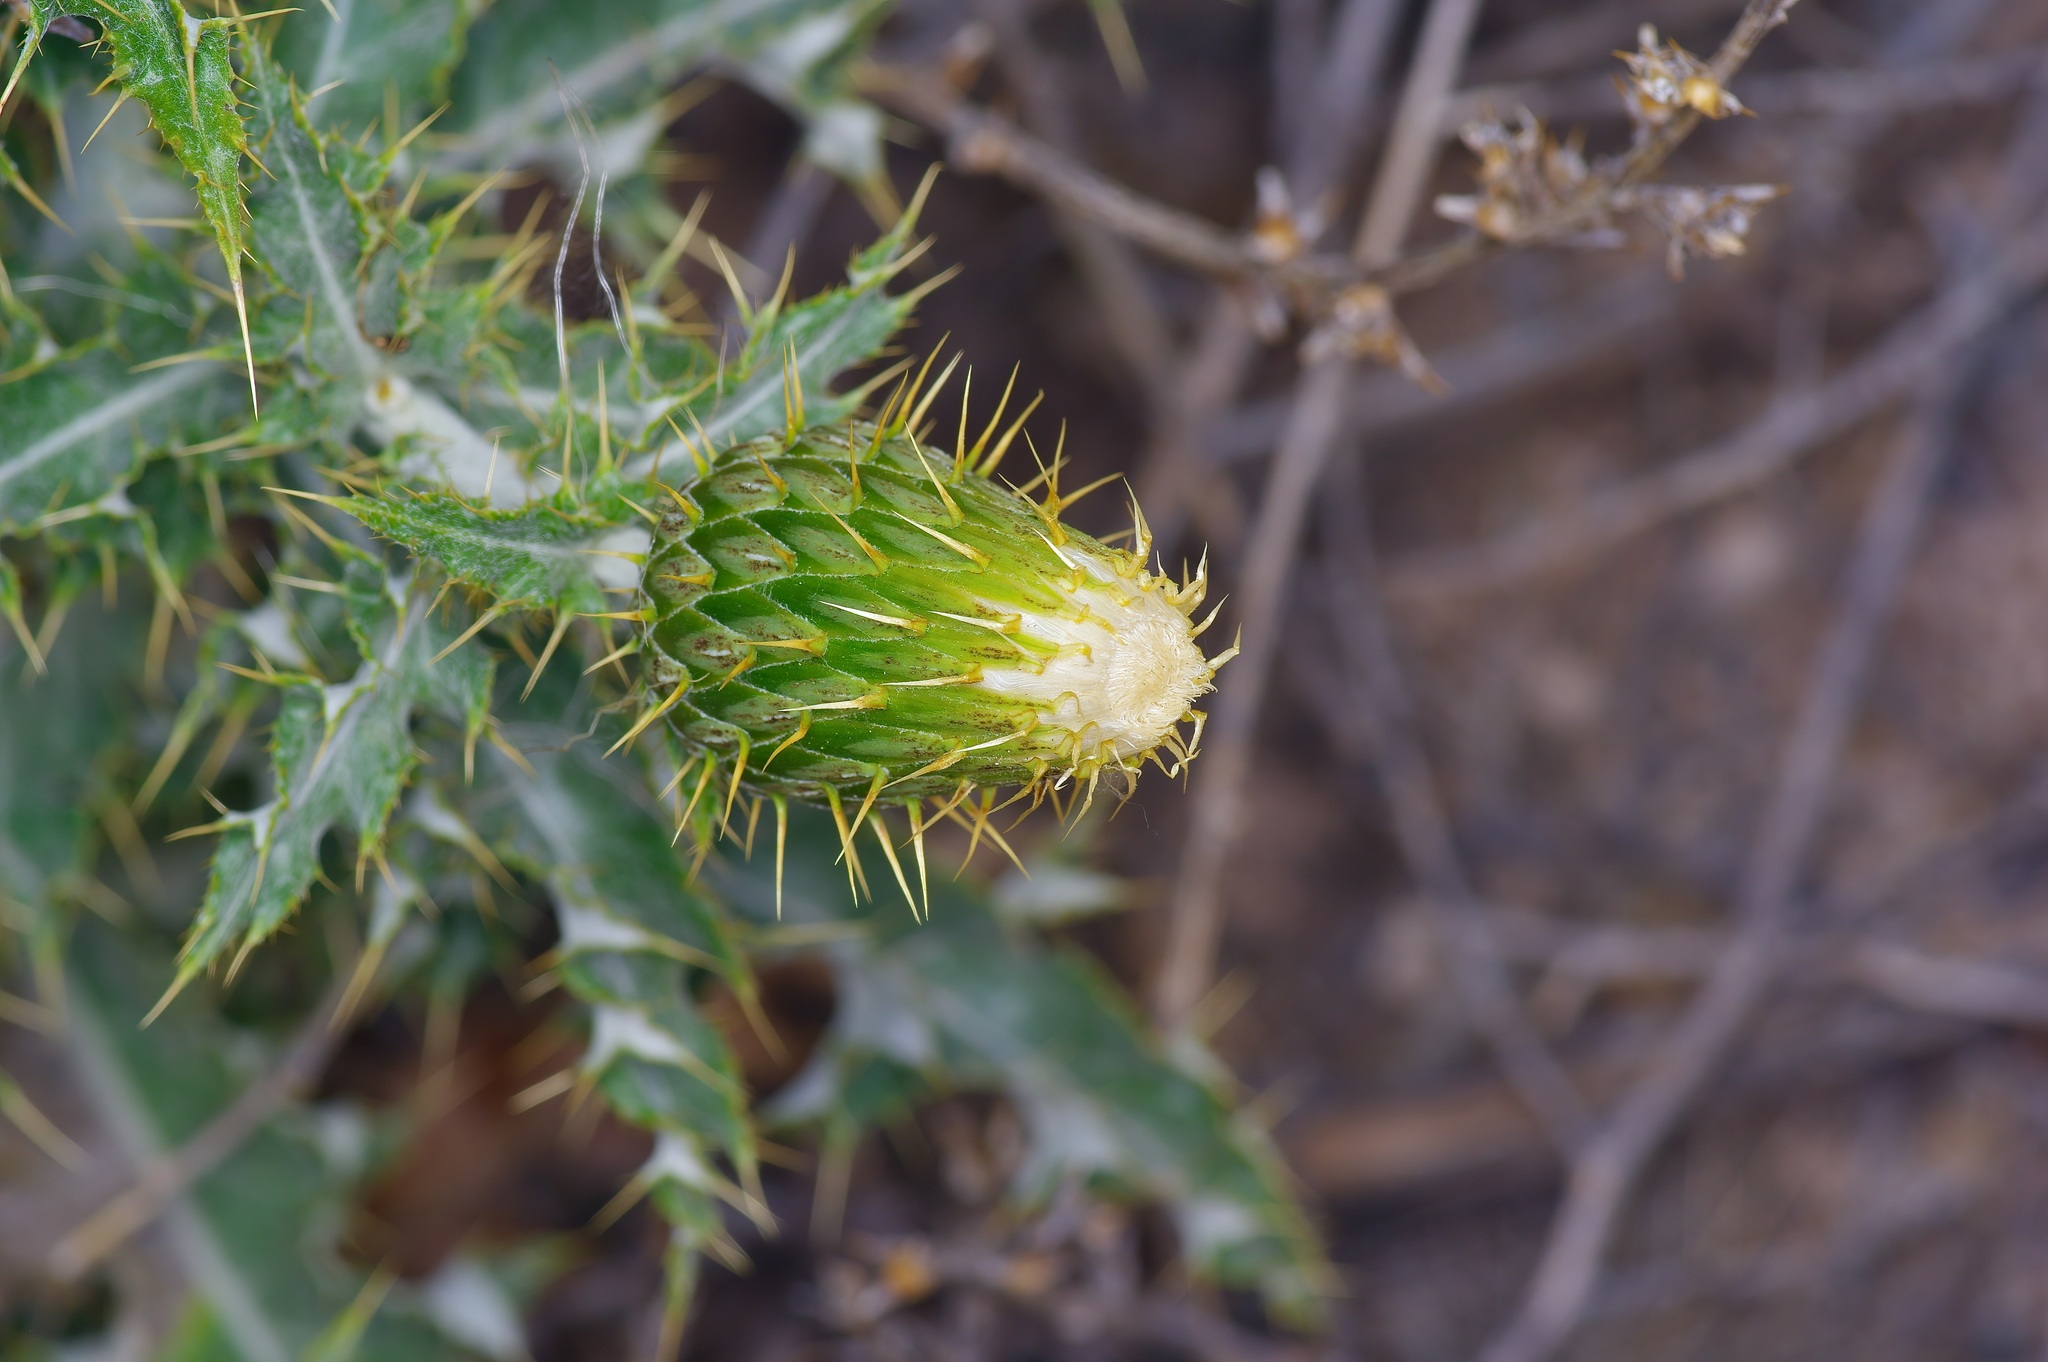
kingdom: Plantae
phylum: Tracheophyta
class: Magnoliopsida
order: Asterales
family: Asteraceae
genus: Cirsium
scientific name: Cirsium ochrocentrum
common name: Yellow-spine thistle
